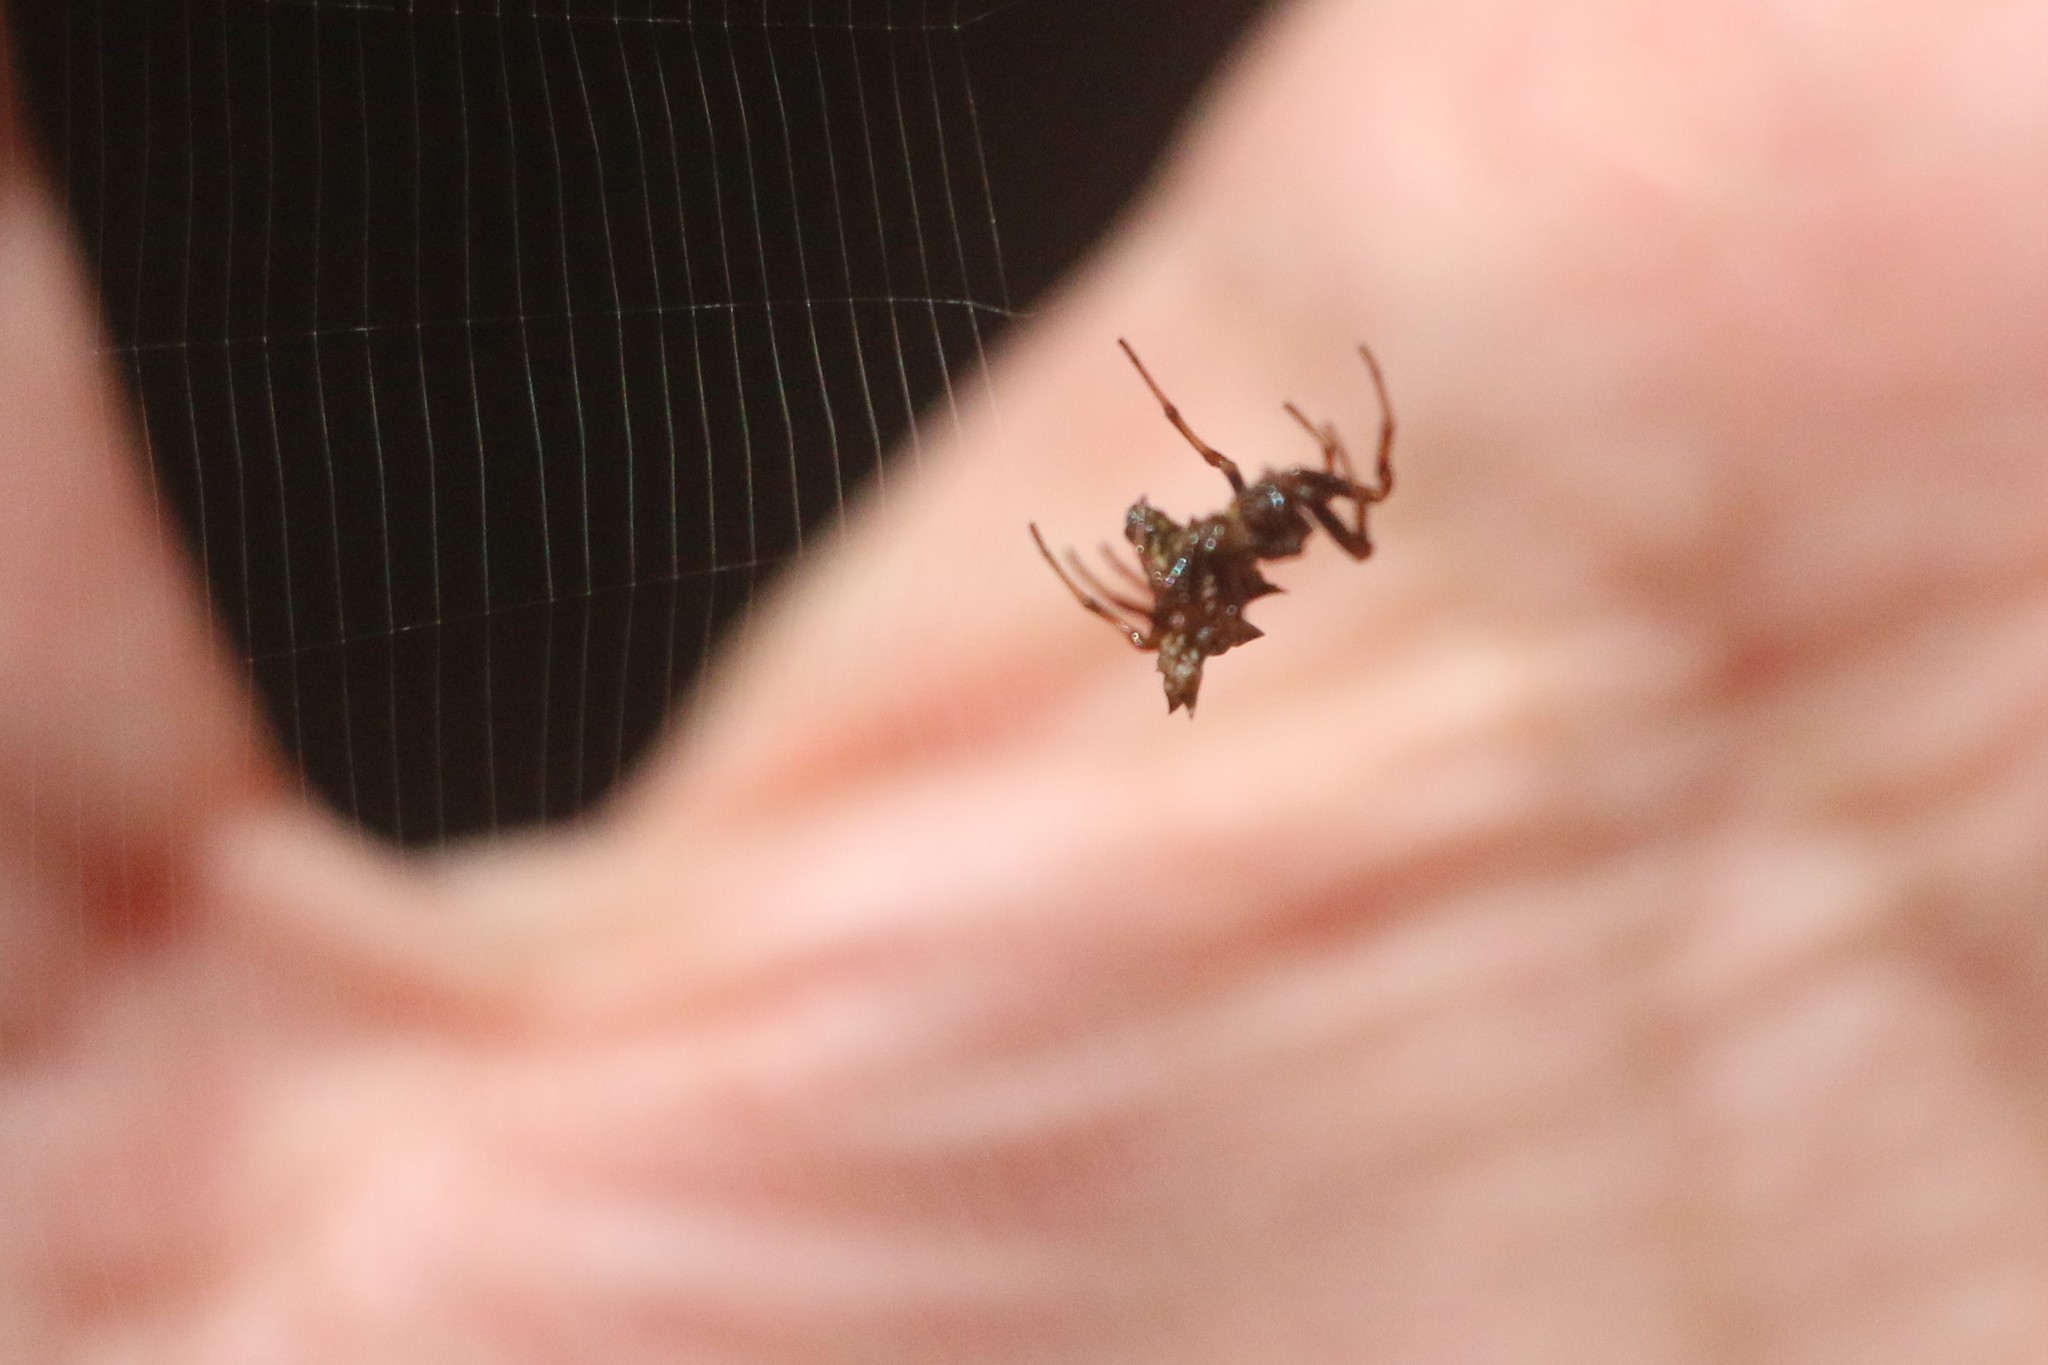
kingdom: Animalia
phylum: Arthropoda
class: Arachnida
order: Araneae
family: Araneidae
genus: Micrathena
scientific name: Micrathena gracilis
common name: Orb weavers
